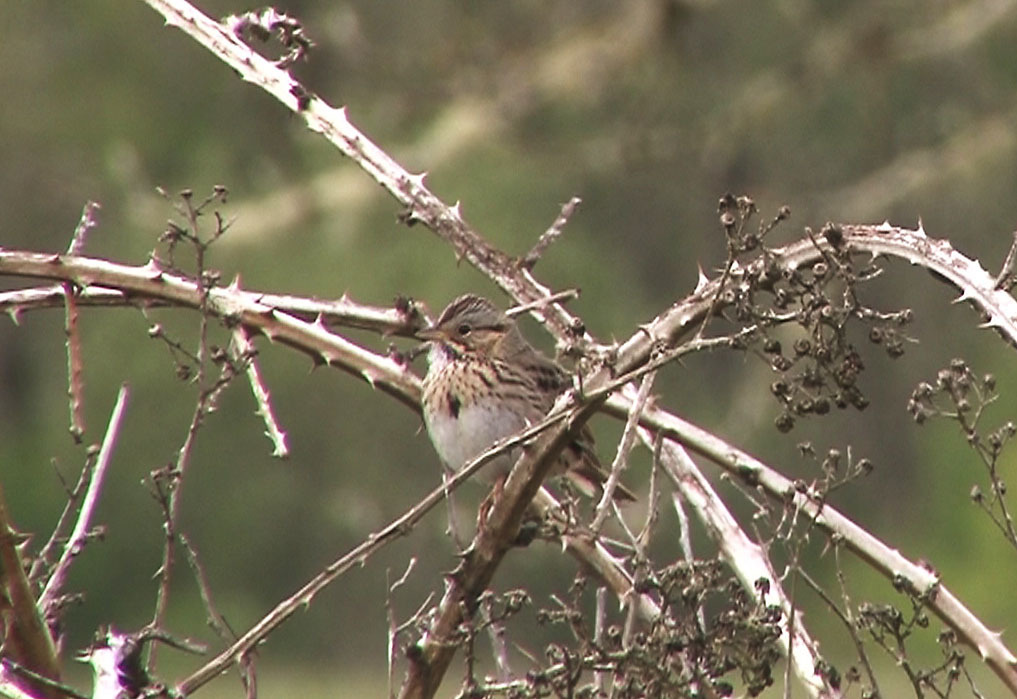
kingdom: Animalia
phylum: Chordata
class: Aves
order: Passeriformes
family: Passerellidae
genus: Melospiza
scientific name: Melospiza lincolnii
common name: Lincoln's sparrow
